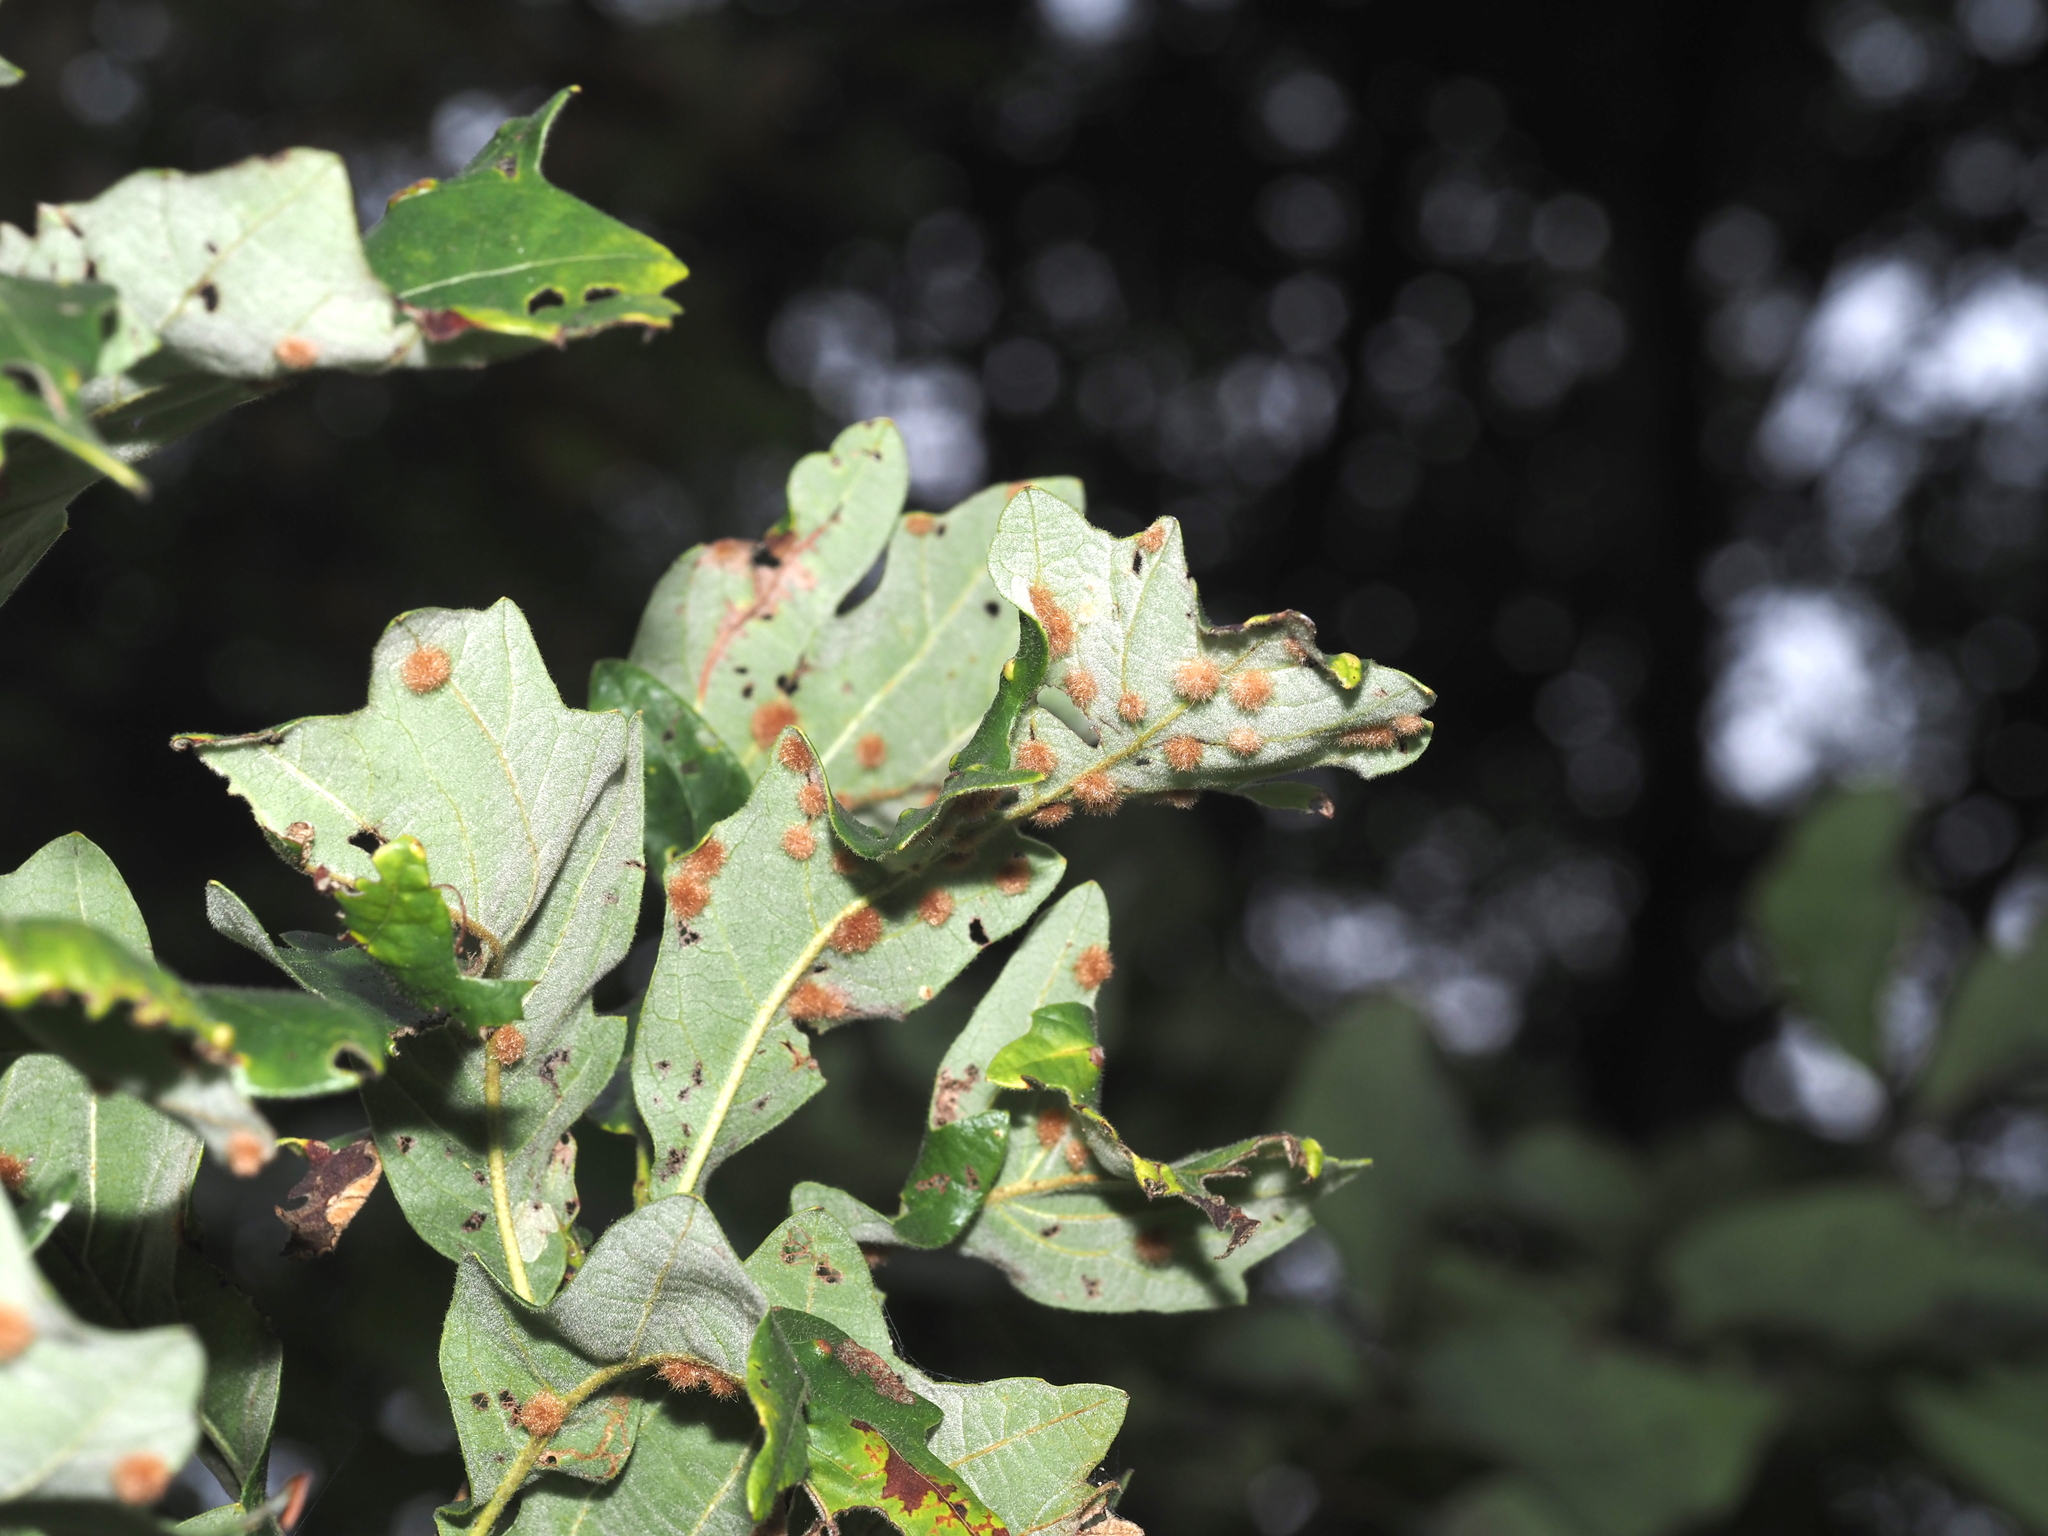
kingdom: Animalia
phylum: Arthropoda
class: Insecta
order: Hymenoptera
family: Cynipidae
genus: Neuroterus
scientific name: Neuroterus floccosus
